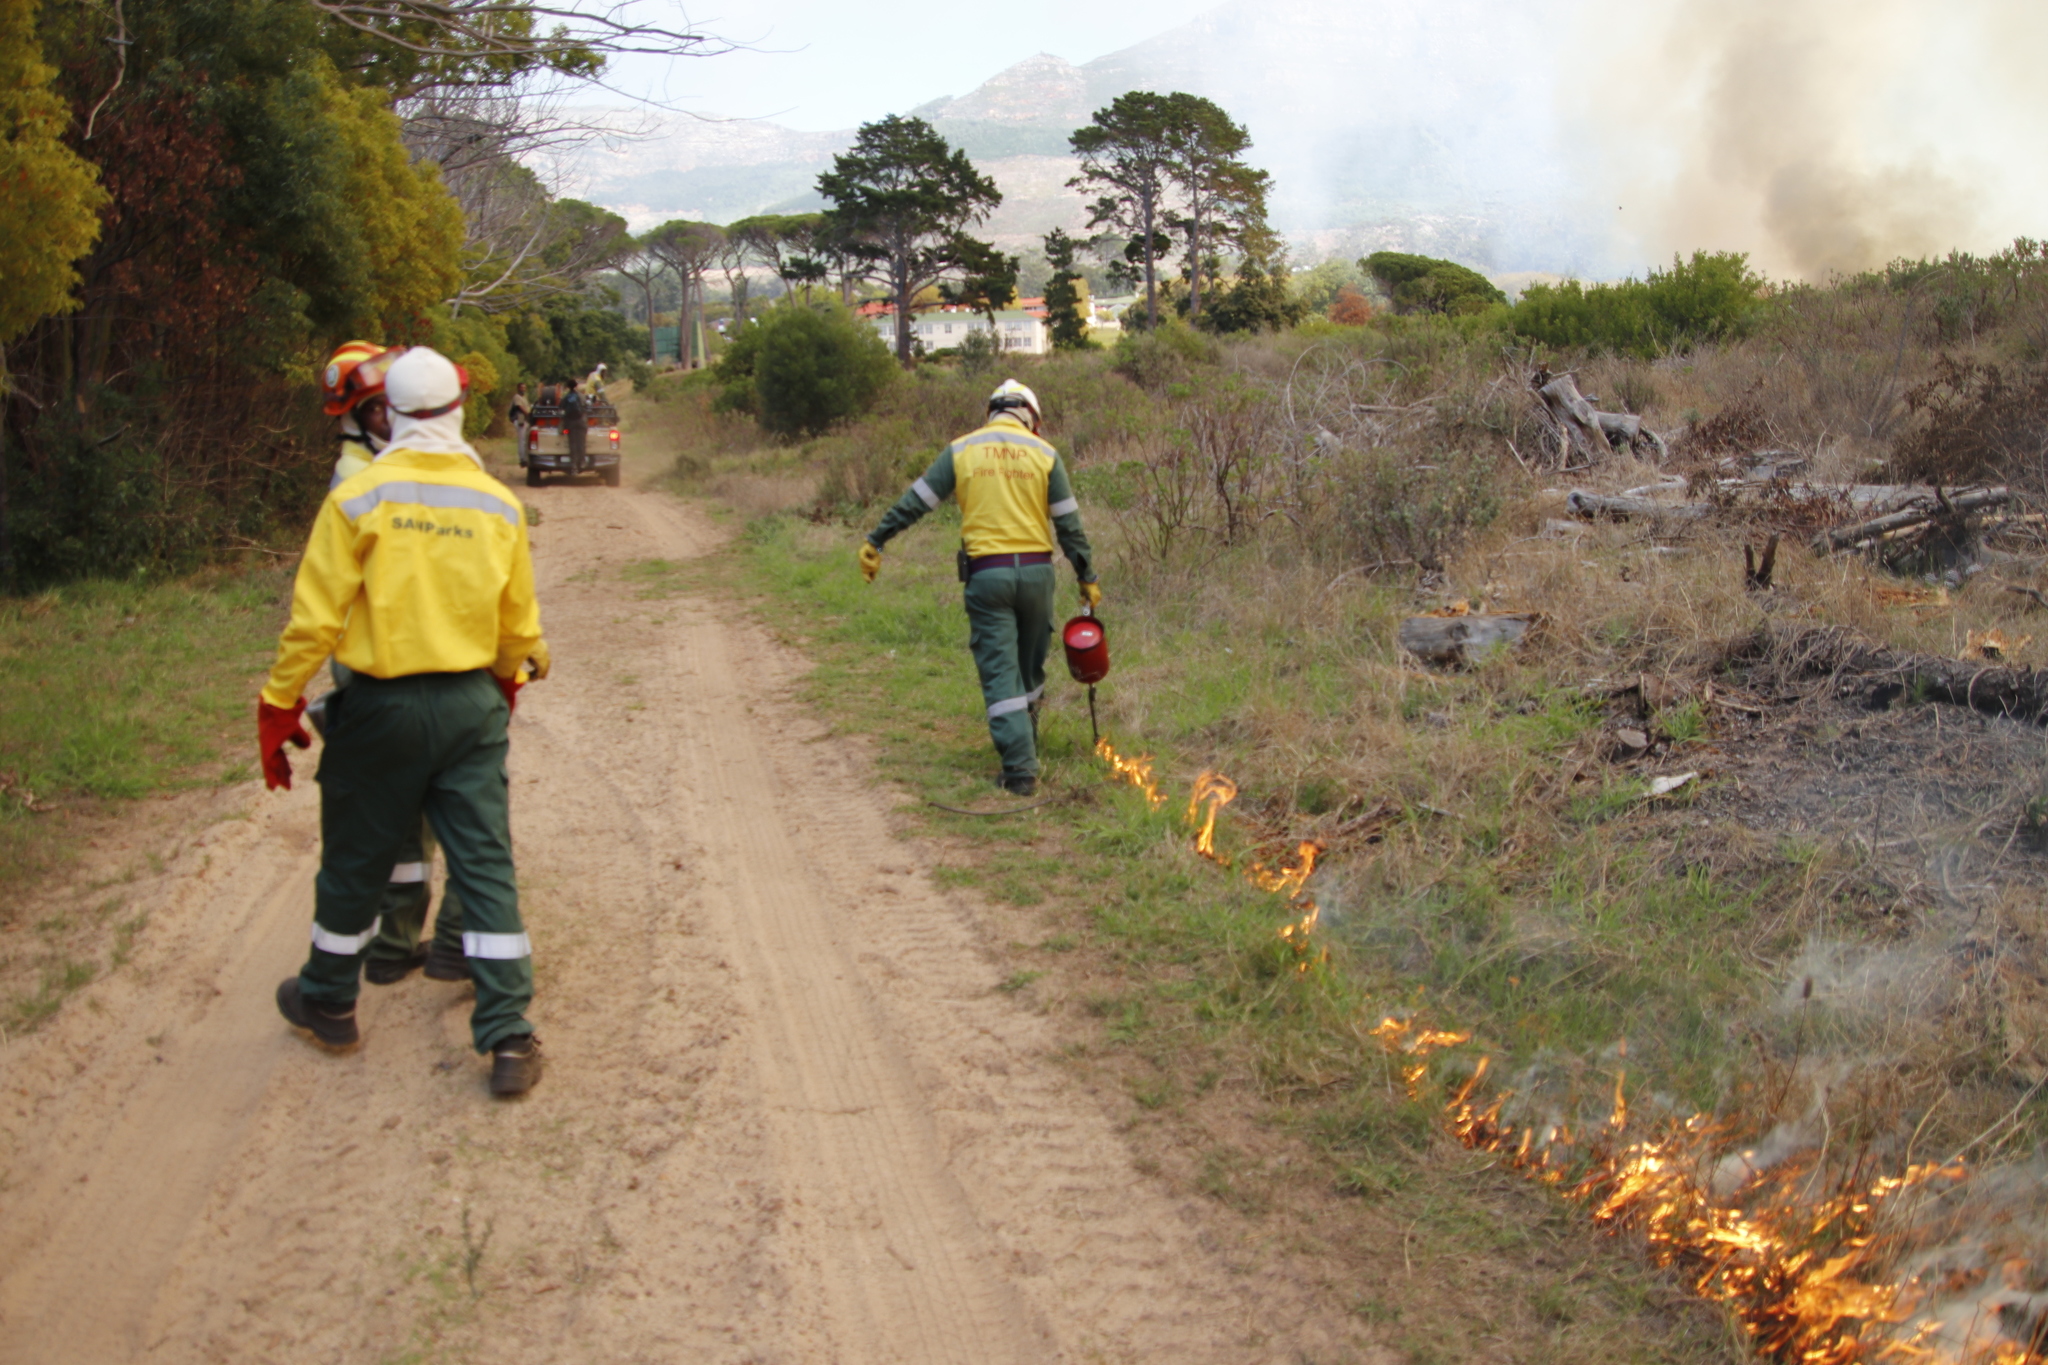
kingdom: Plantae
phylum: Tracheophyta
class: Liliopsida
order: Poales
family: Poaceae
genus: Cynodon
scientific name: Cynodon dactylon
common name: Bermuda grass
